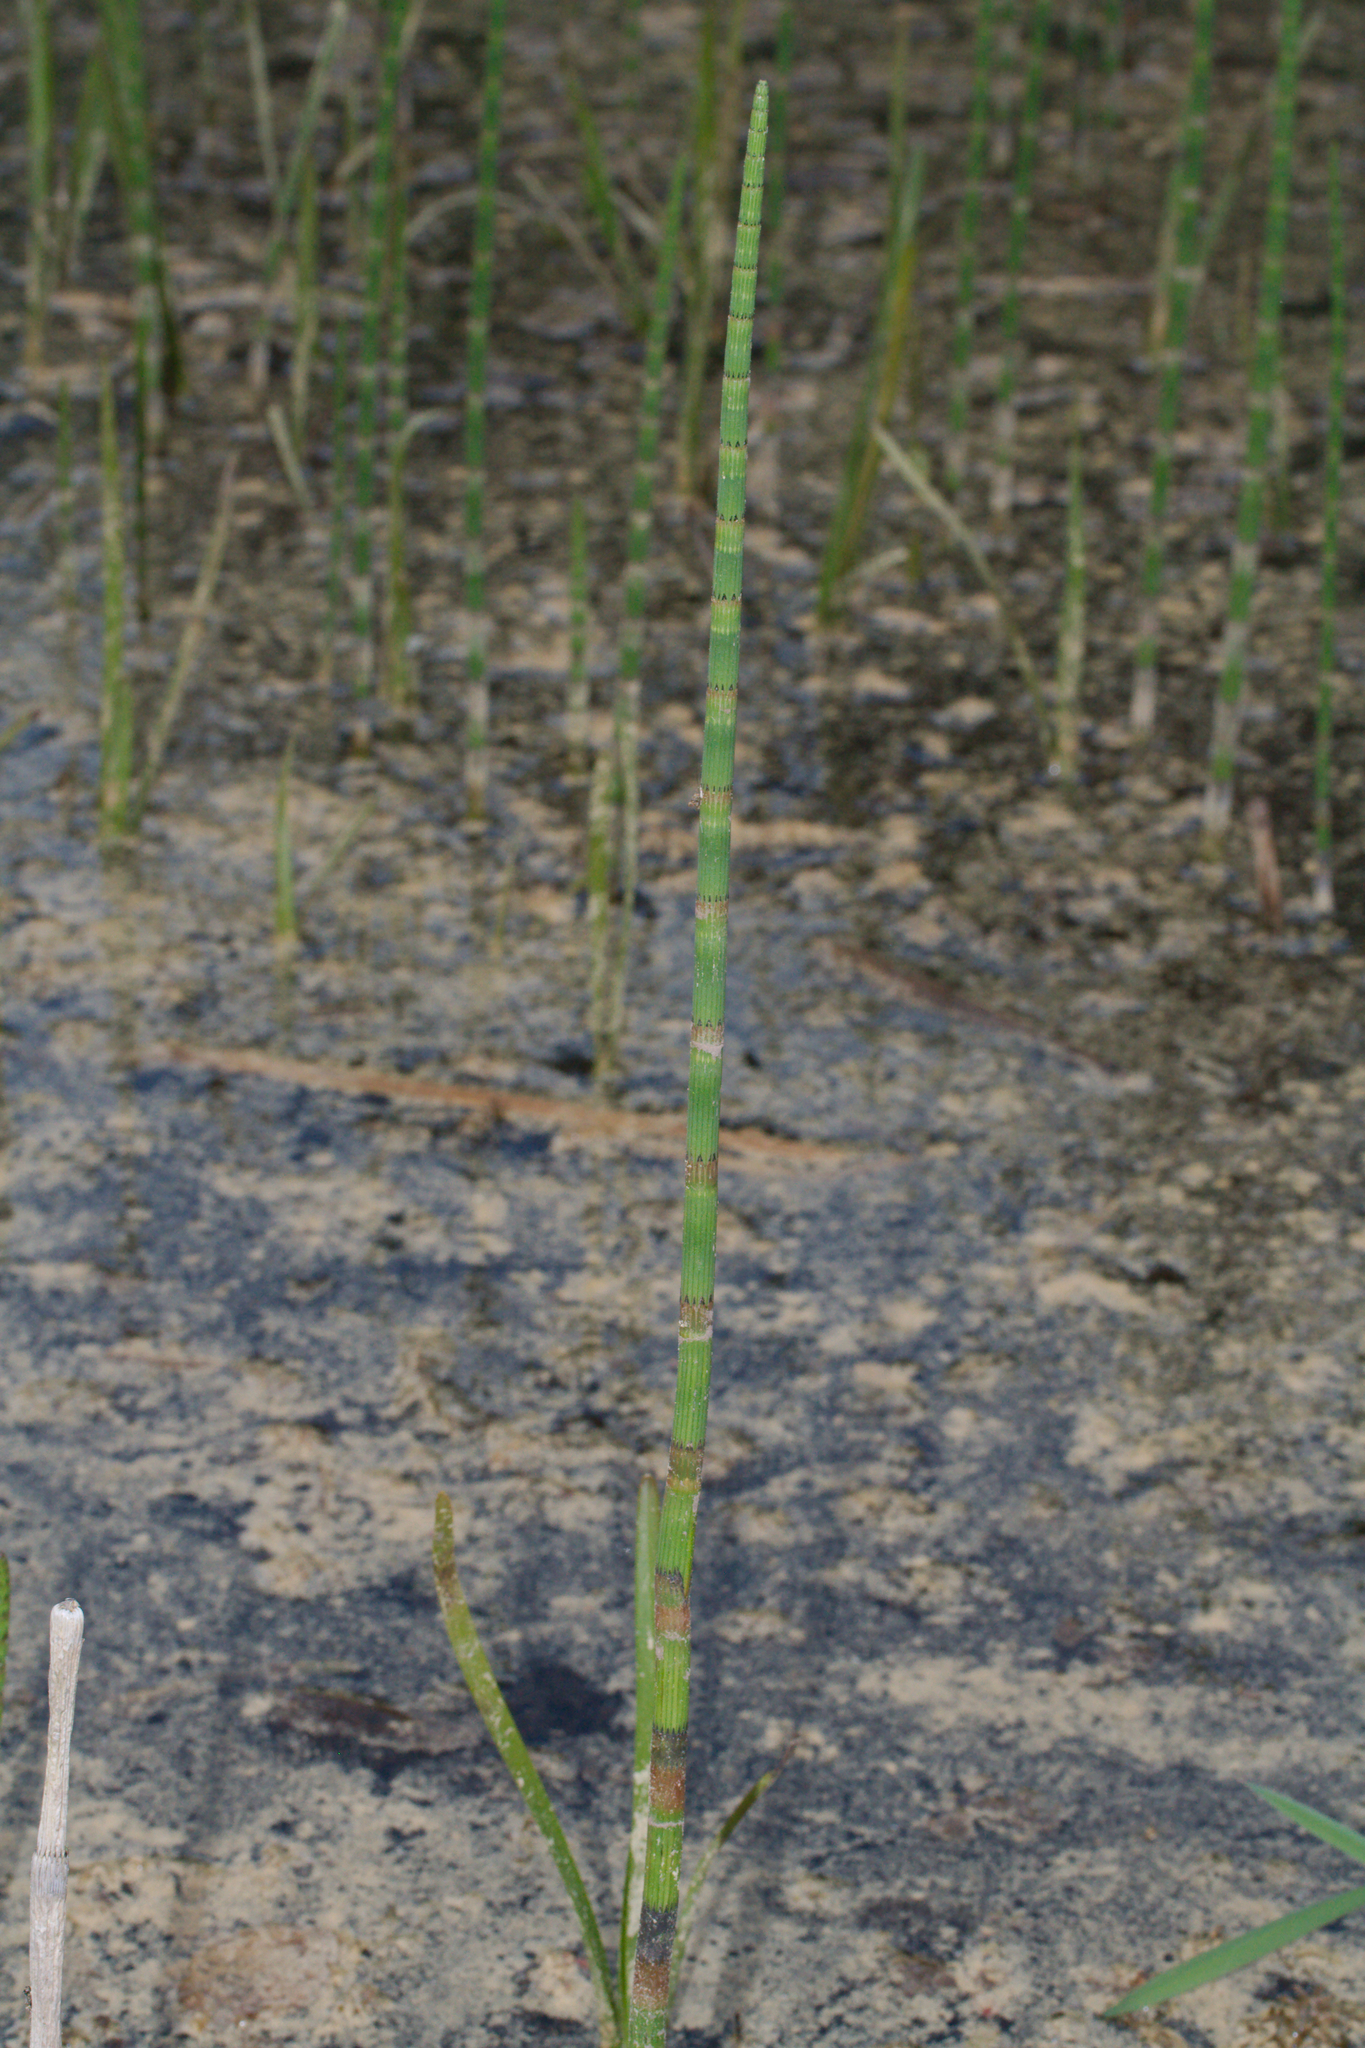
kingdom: Plantae
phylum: Tracheophyta
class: Polypodiopsida
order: Equisetales
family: Equisetaceae
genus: Equisetum
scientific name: Equisetum fluviatile
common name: Water horsetail
